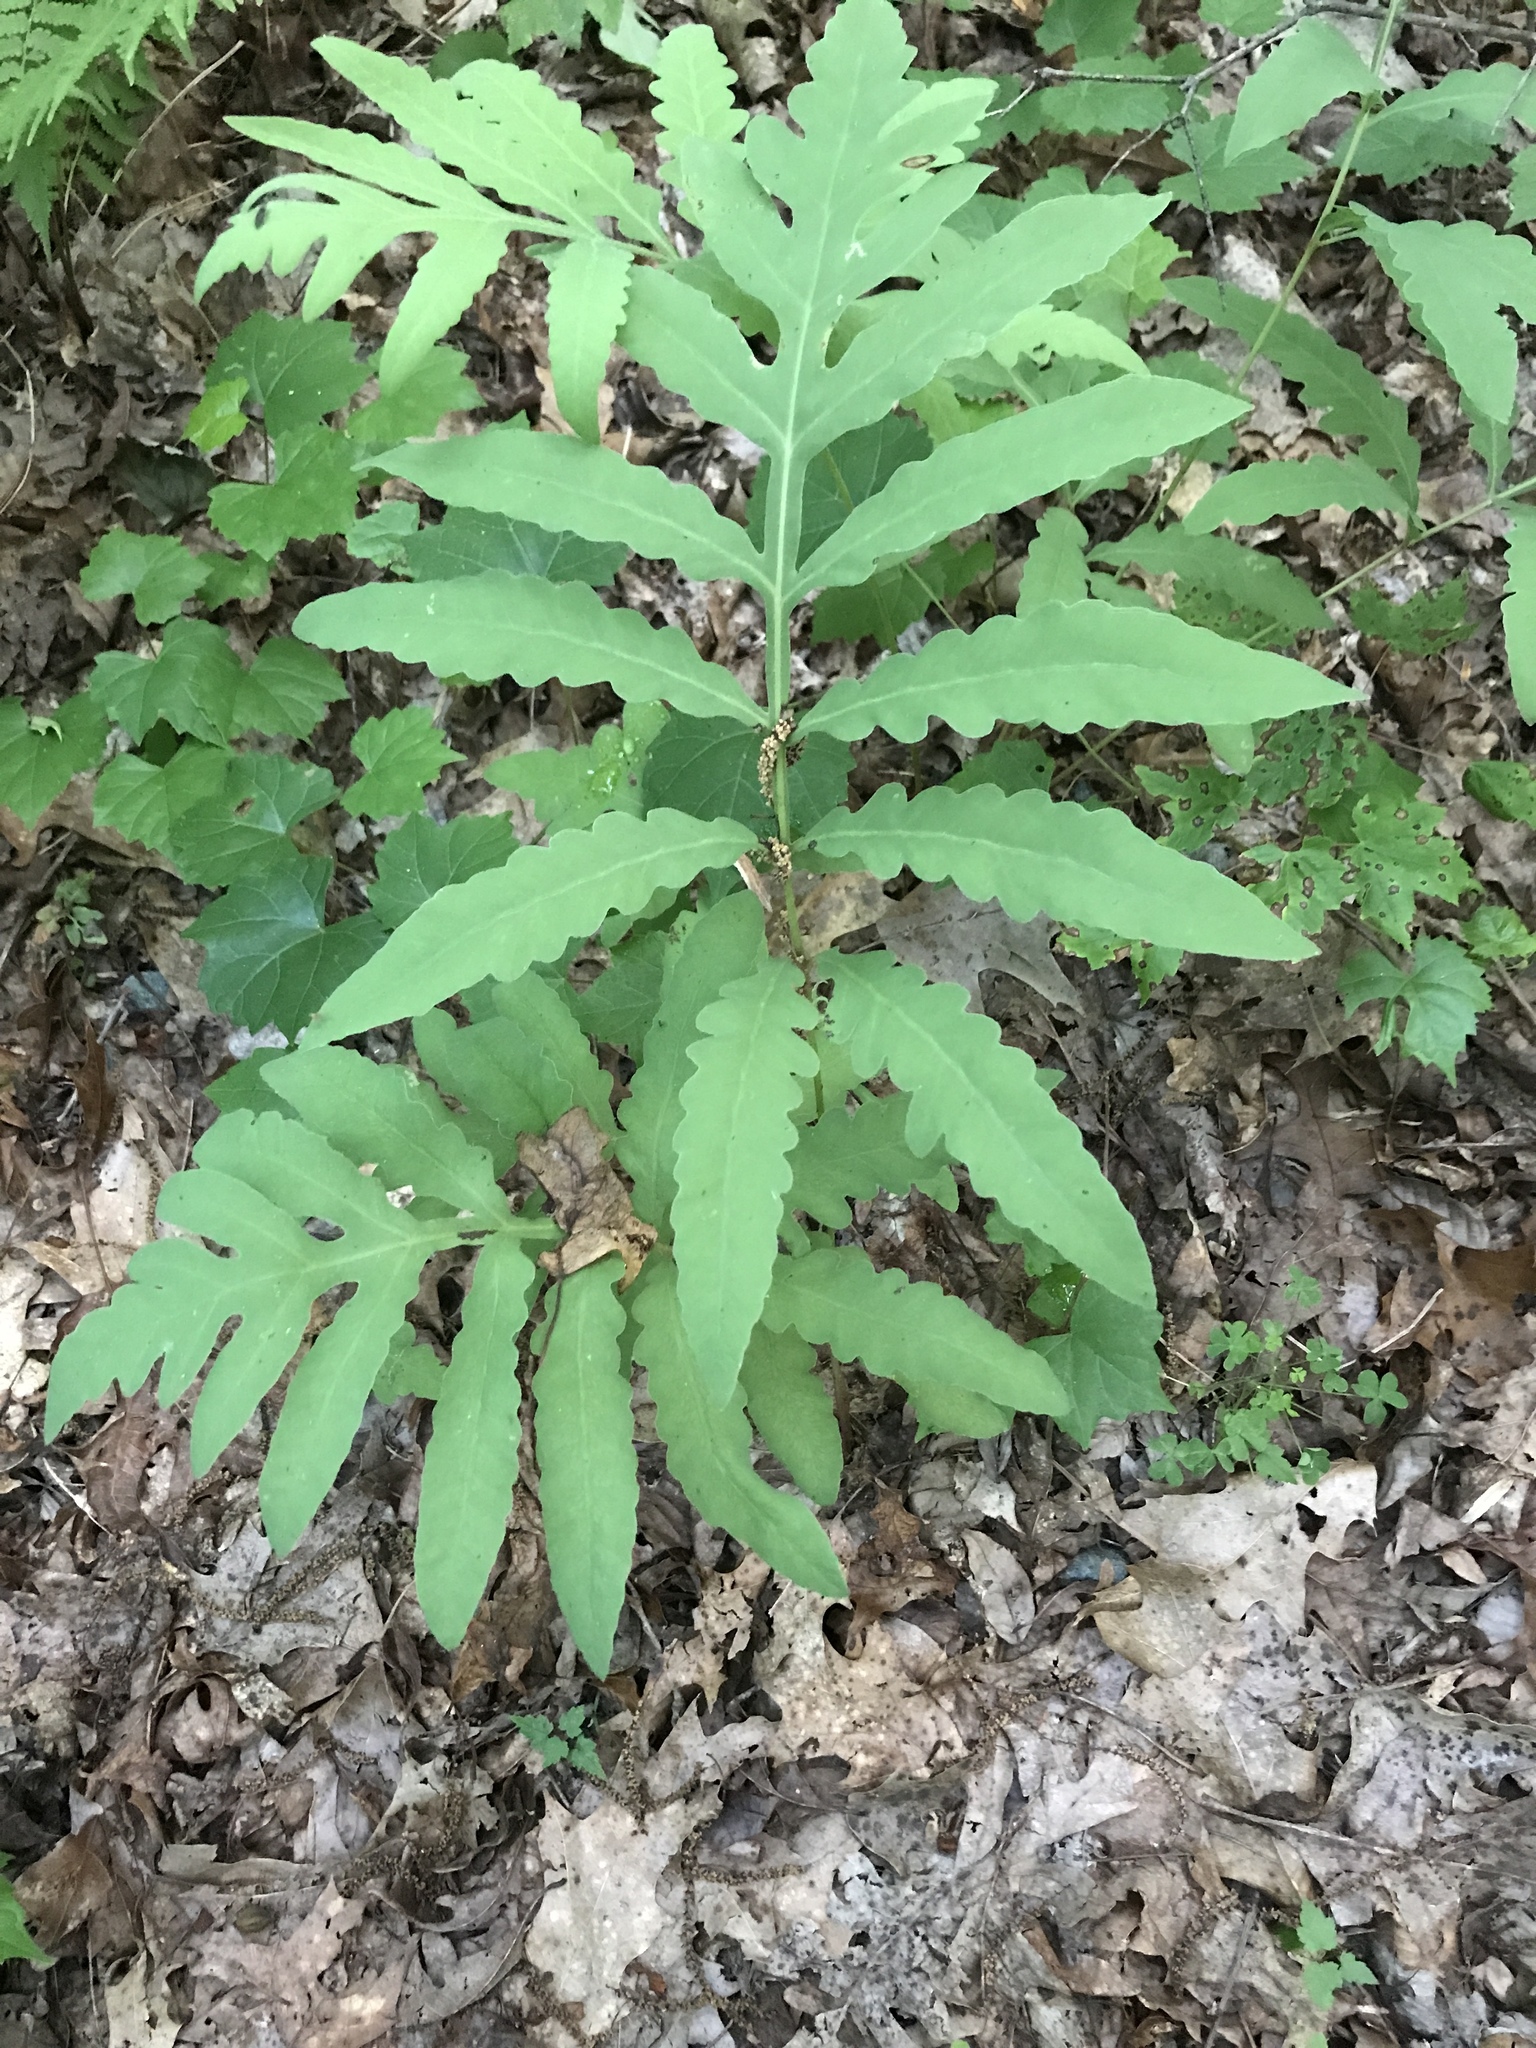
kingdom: Plantae
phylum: Tracheophyta
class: Polypodiopsida
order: Polypodiales
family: Onocleaceae
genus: Onoclea
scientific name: Onoclea sensibilis
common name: Sensitive fern
